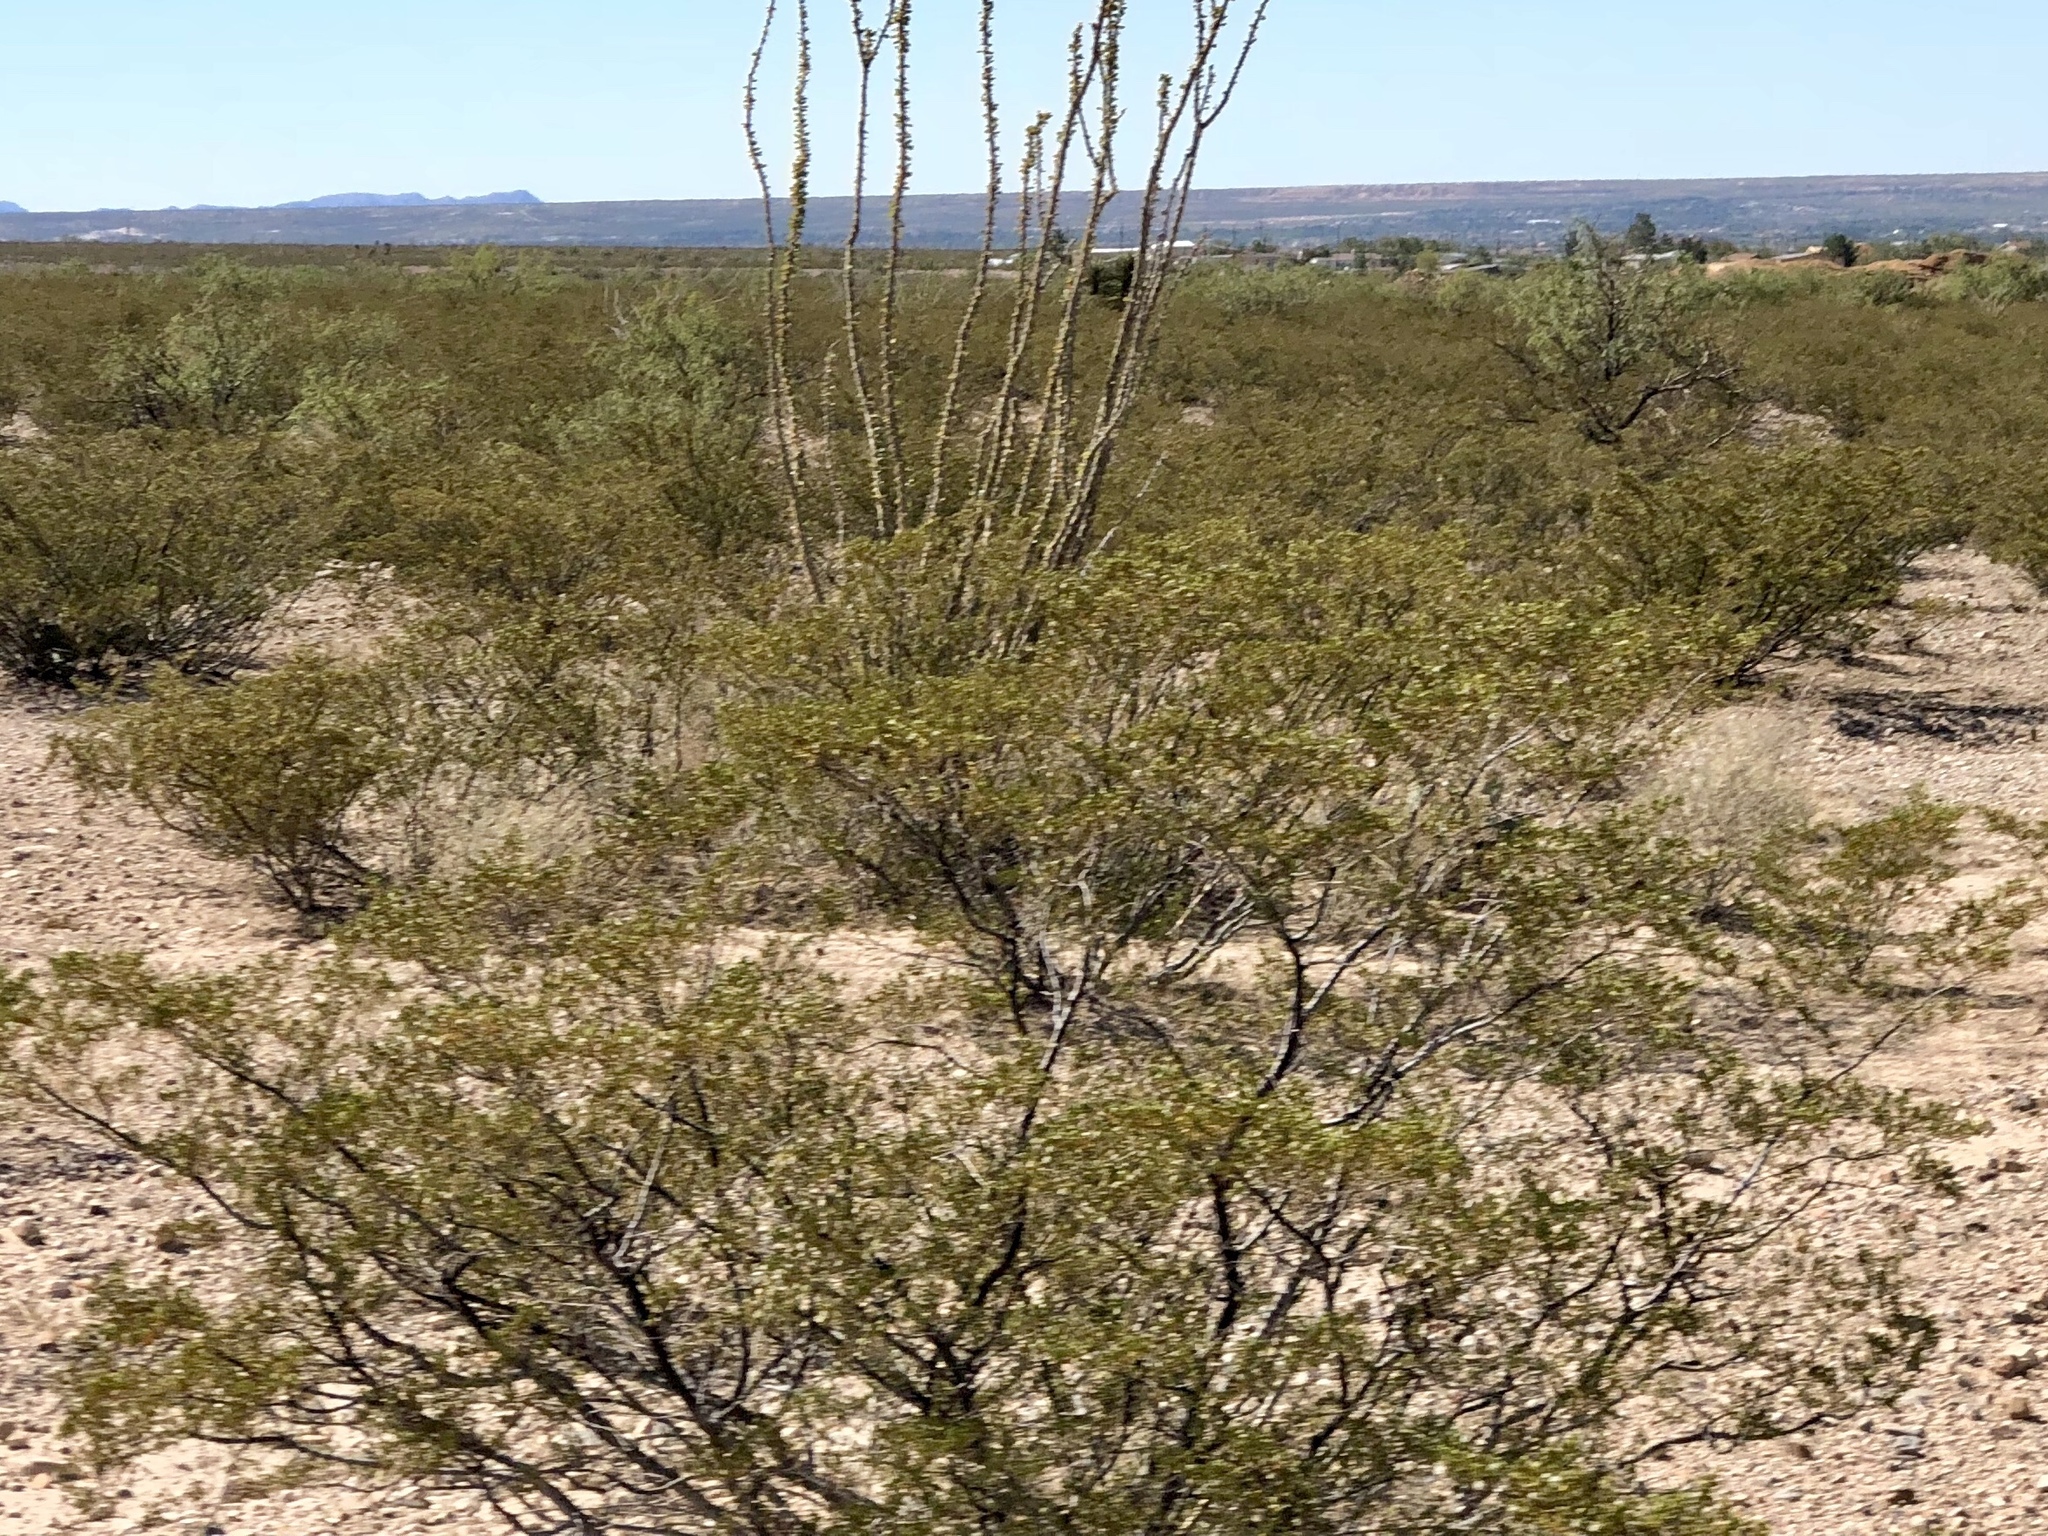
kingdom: Plantae
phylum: Tracheophyta
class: Magnoliopsida
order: Zygophyllales
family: Zygophyllaceae
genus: Larrea
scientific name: Larrea tridentata
